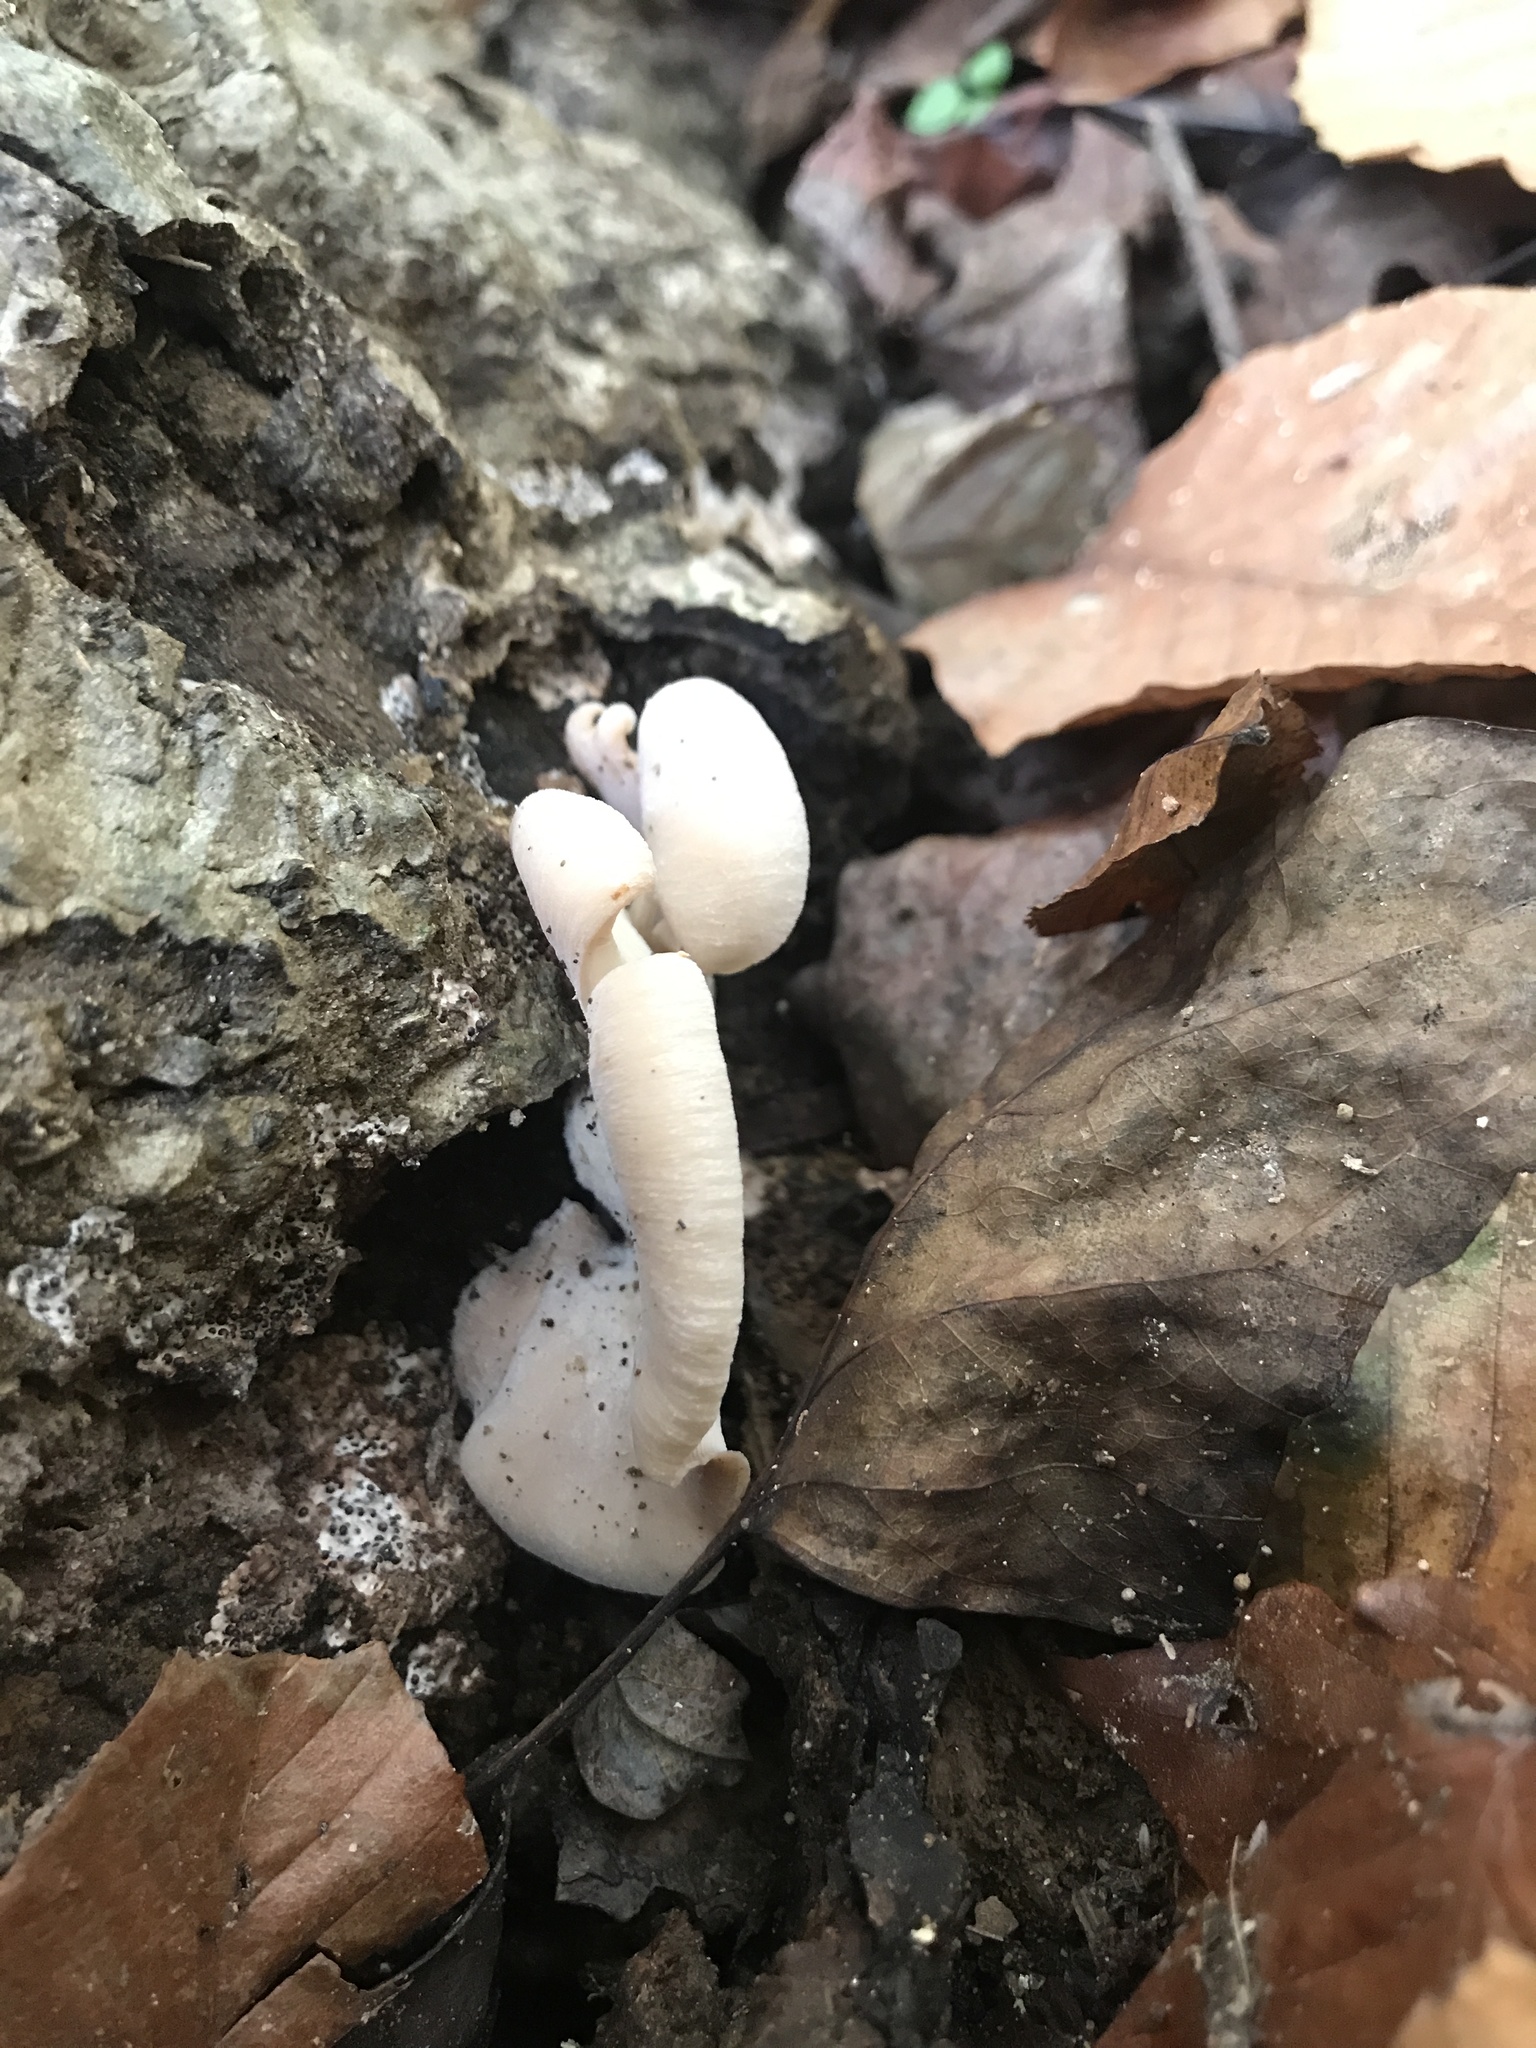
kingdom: Fungi
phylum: Basidiomycota
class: Agaricomycetes
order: Russulales
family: Auriscalpiaceae
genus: Lentinellus
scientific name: Lentinellus ursinus
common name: Bear lentinus
